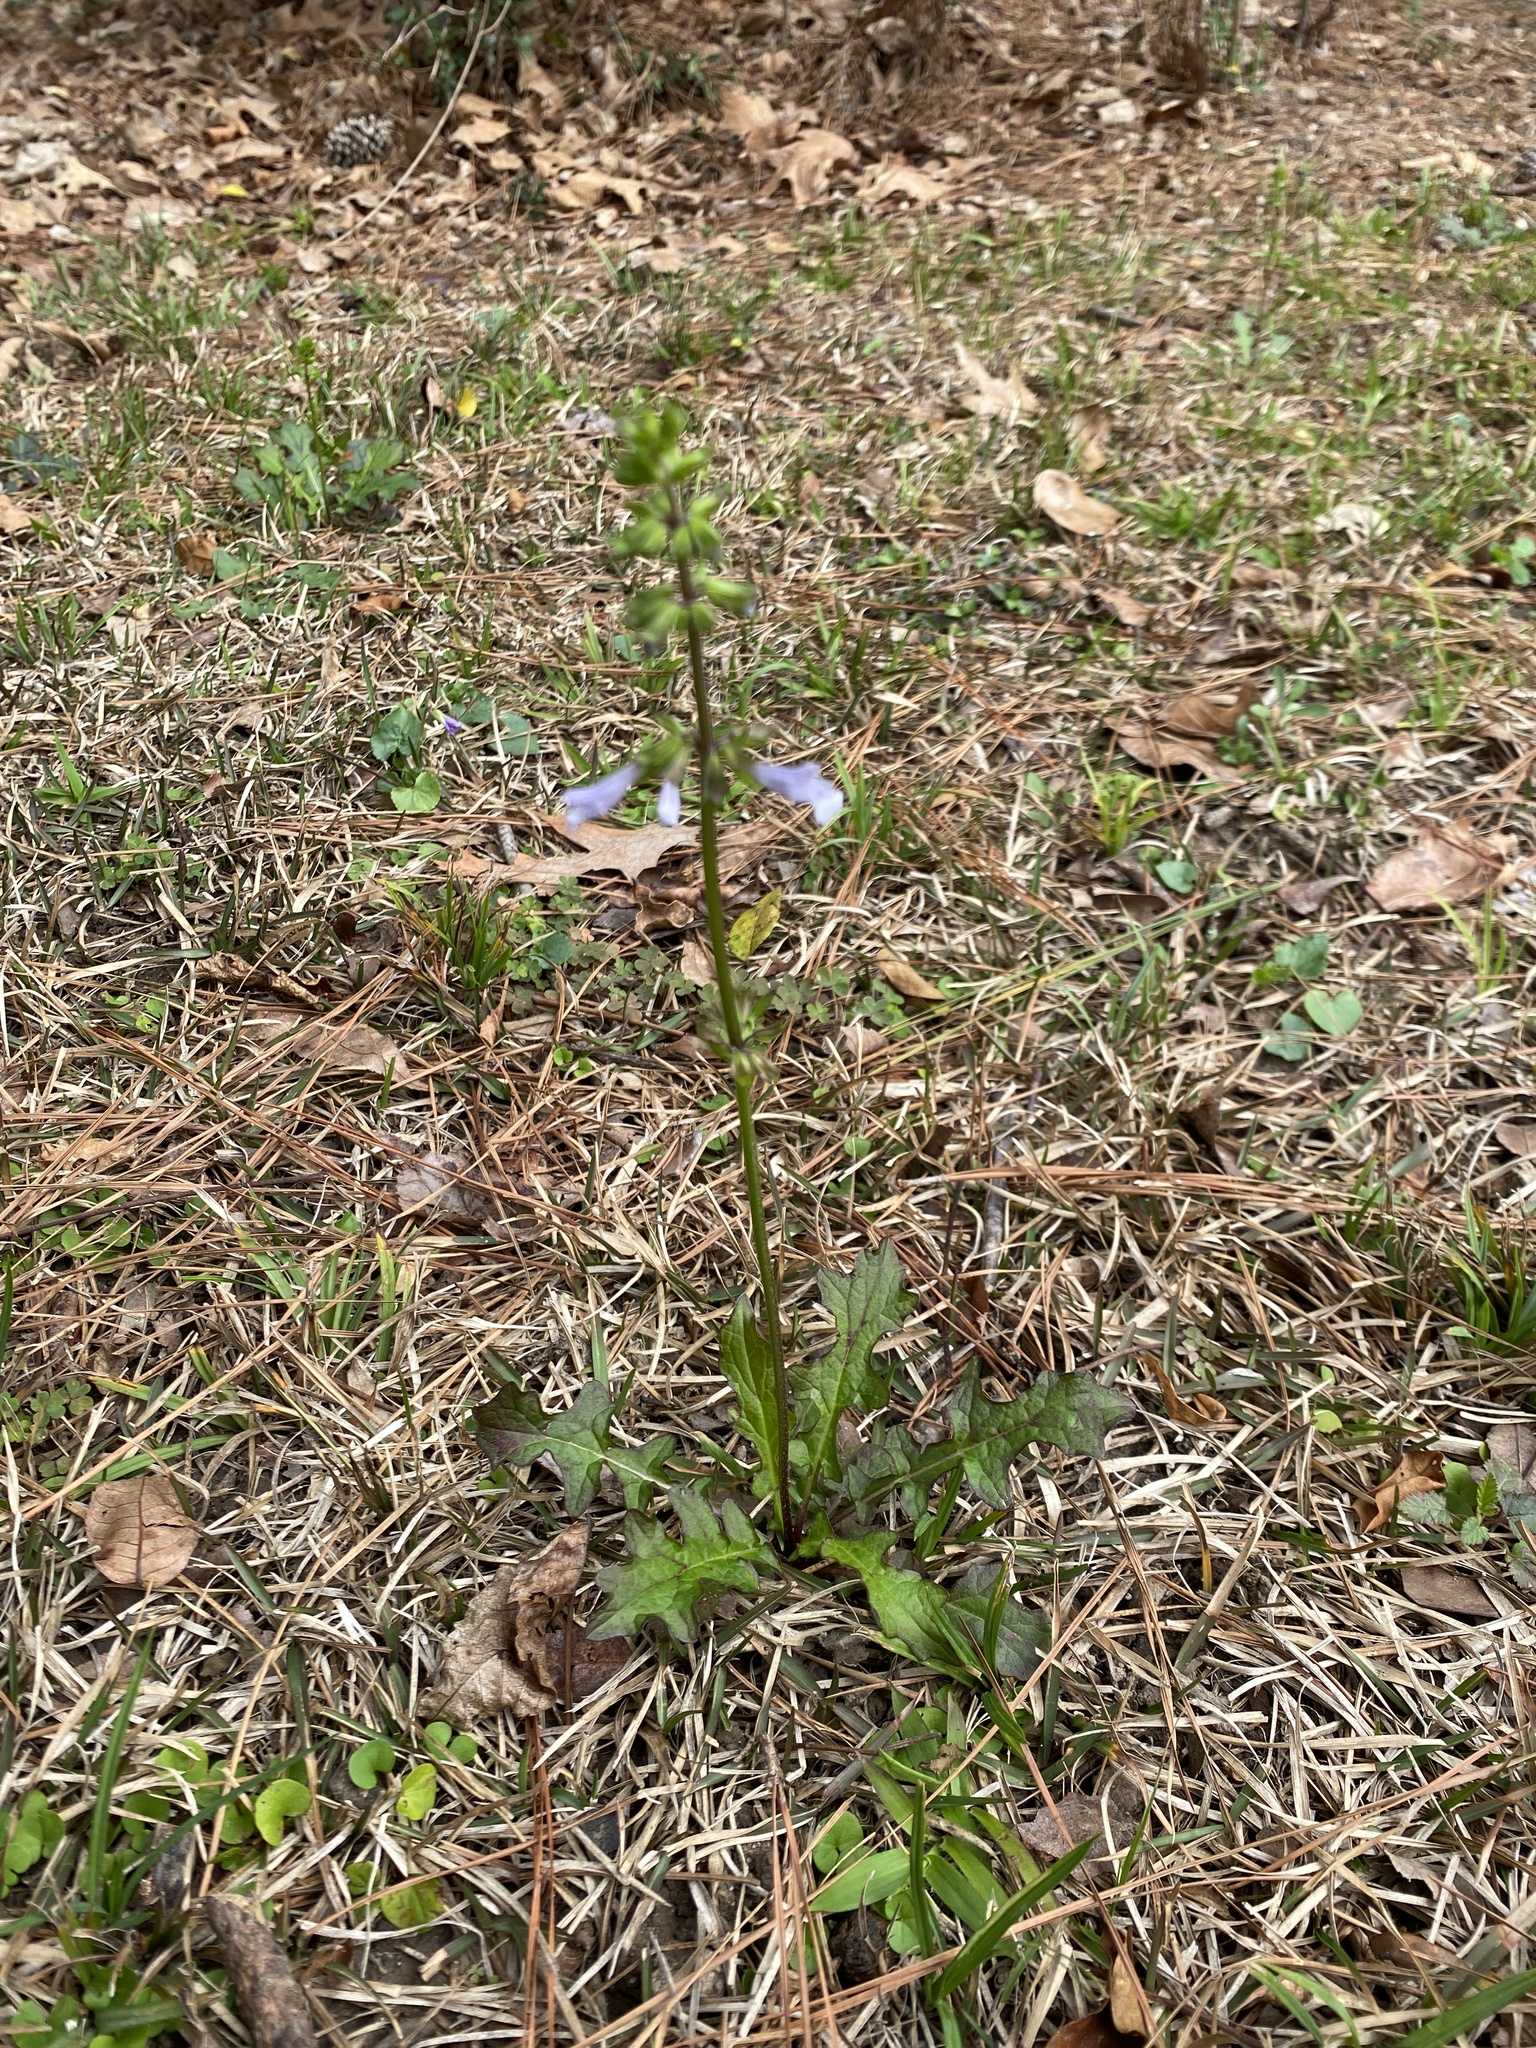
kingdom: Plantae
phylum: Tracheophyta
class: Magnoliopsida
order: Lamiales
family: Lamiaceae
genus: Salvia
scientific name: Salvia lyrata
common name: Cancerweed
